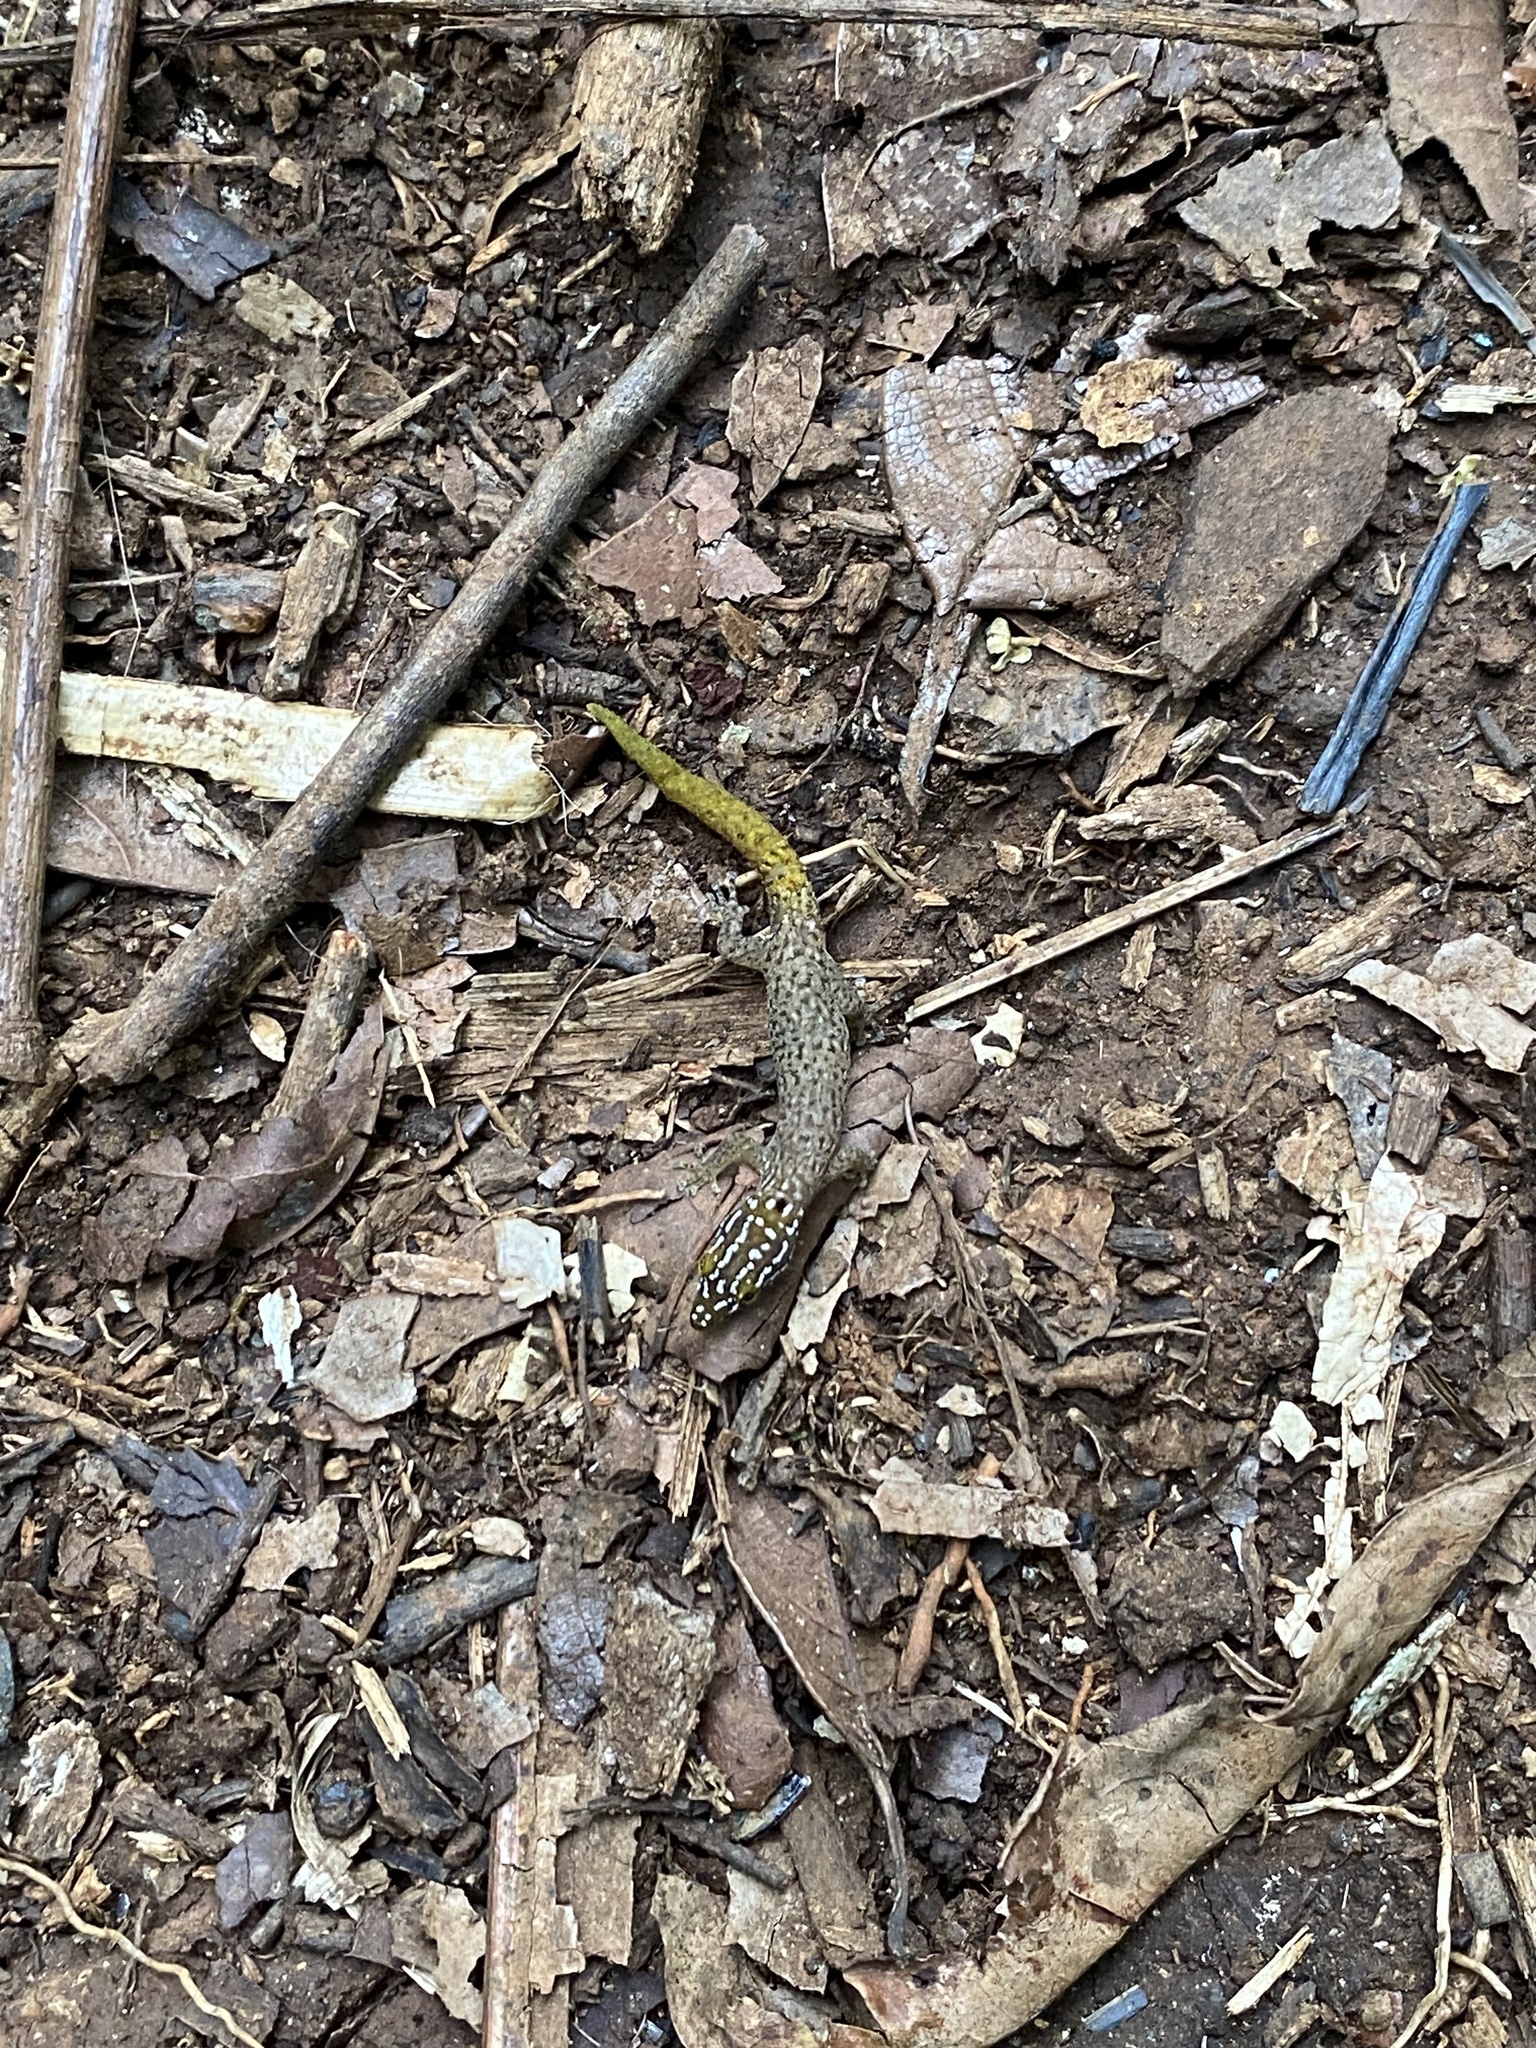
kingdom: Animalia
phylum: Chordata
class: Squamata
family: Sphaerodactylidae
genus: Sphaerodactylus
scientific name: Sphaerodactylus homolepis
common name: Caribbean least gecko
